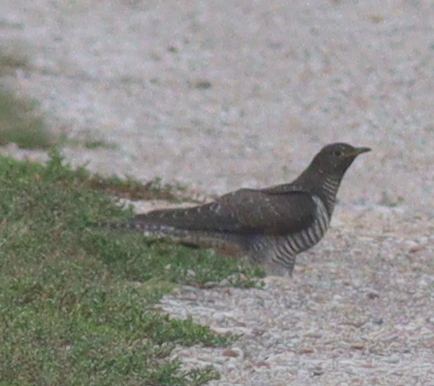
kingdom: Animalia
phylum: Chordata
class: Aves
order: Cuculiformes
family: Cuculidae
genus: Cuculus
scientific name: Cuculus canorus
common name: Common cuckoo
